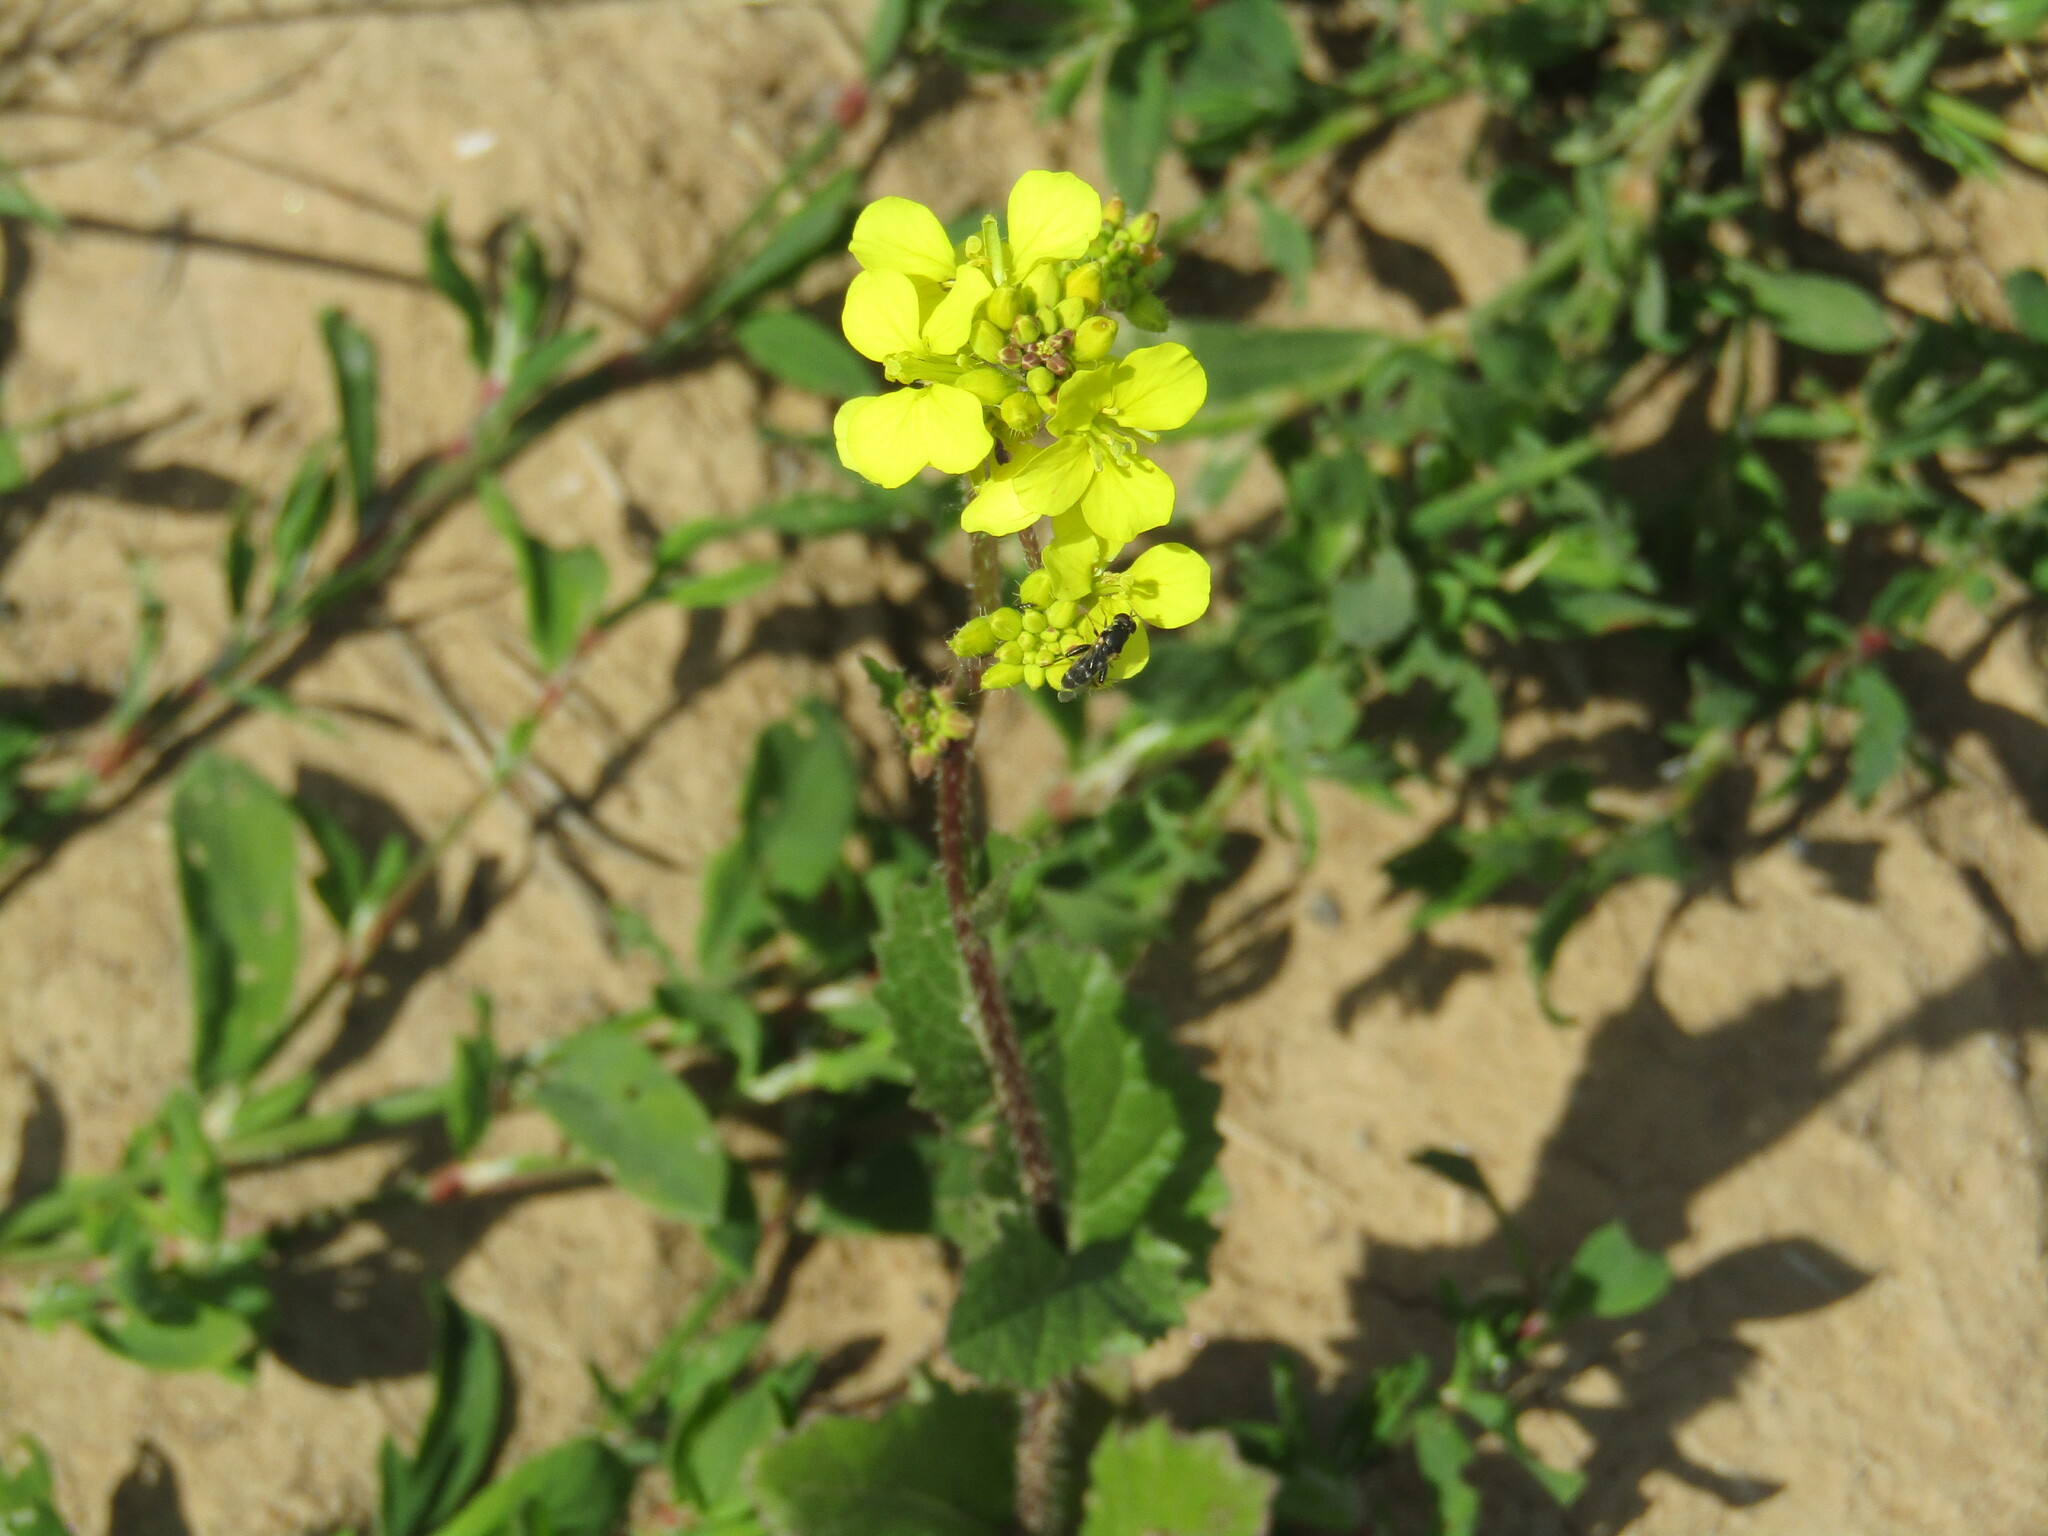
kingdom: Plantae
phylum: Tracheophyta
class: Magnoliopsida
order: Brassicales
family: Brassicaceae
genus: Sinapis
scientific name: Sinapis arvensis
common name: Charlock
